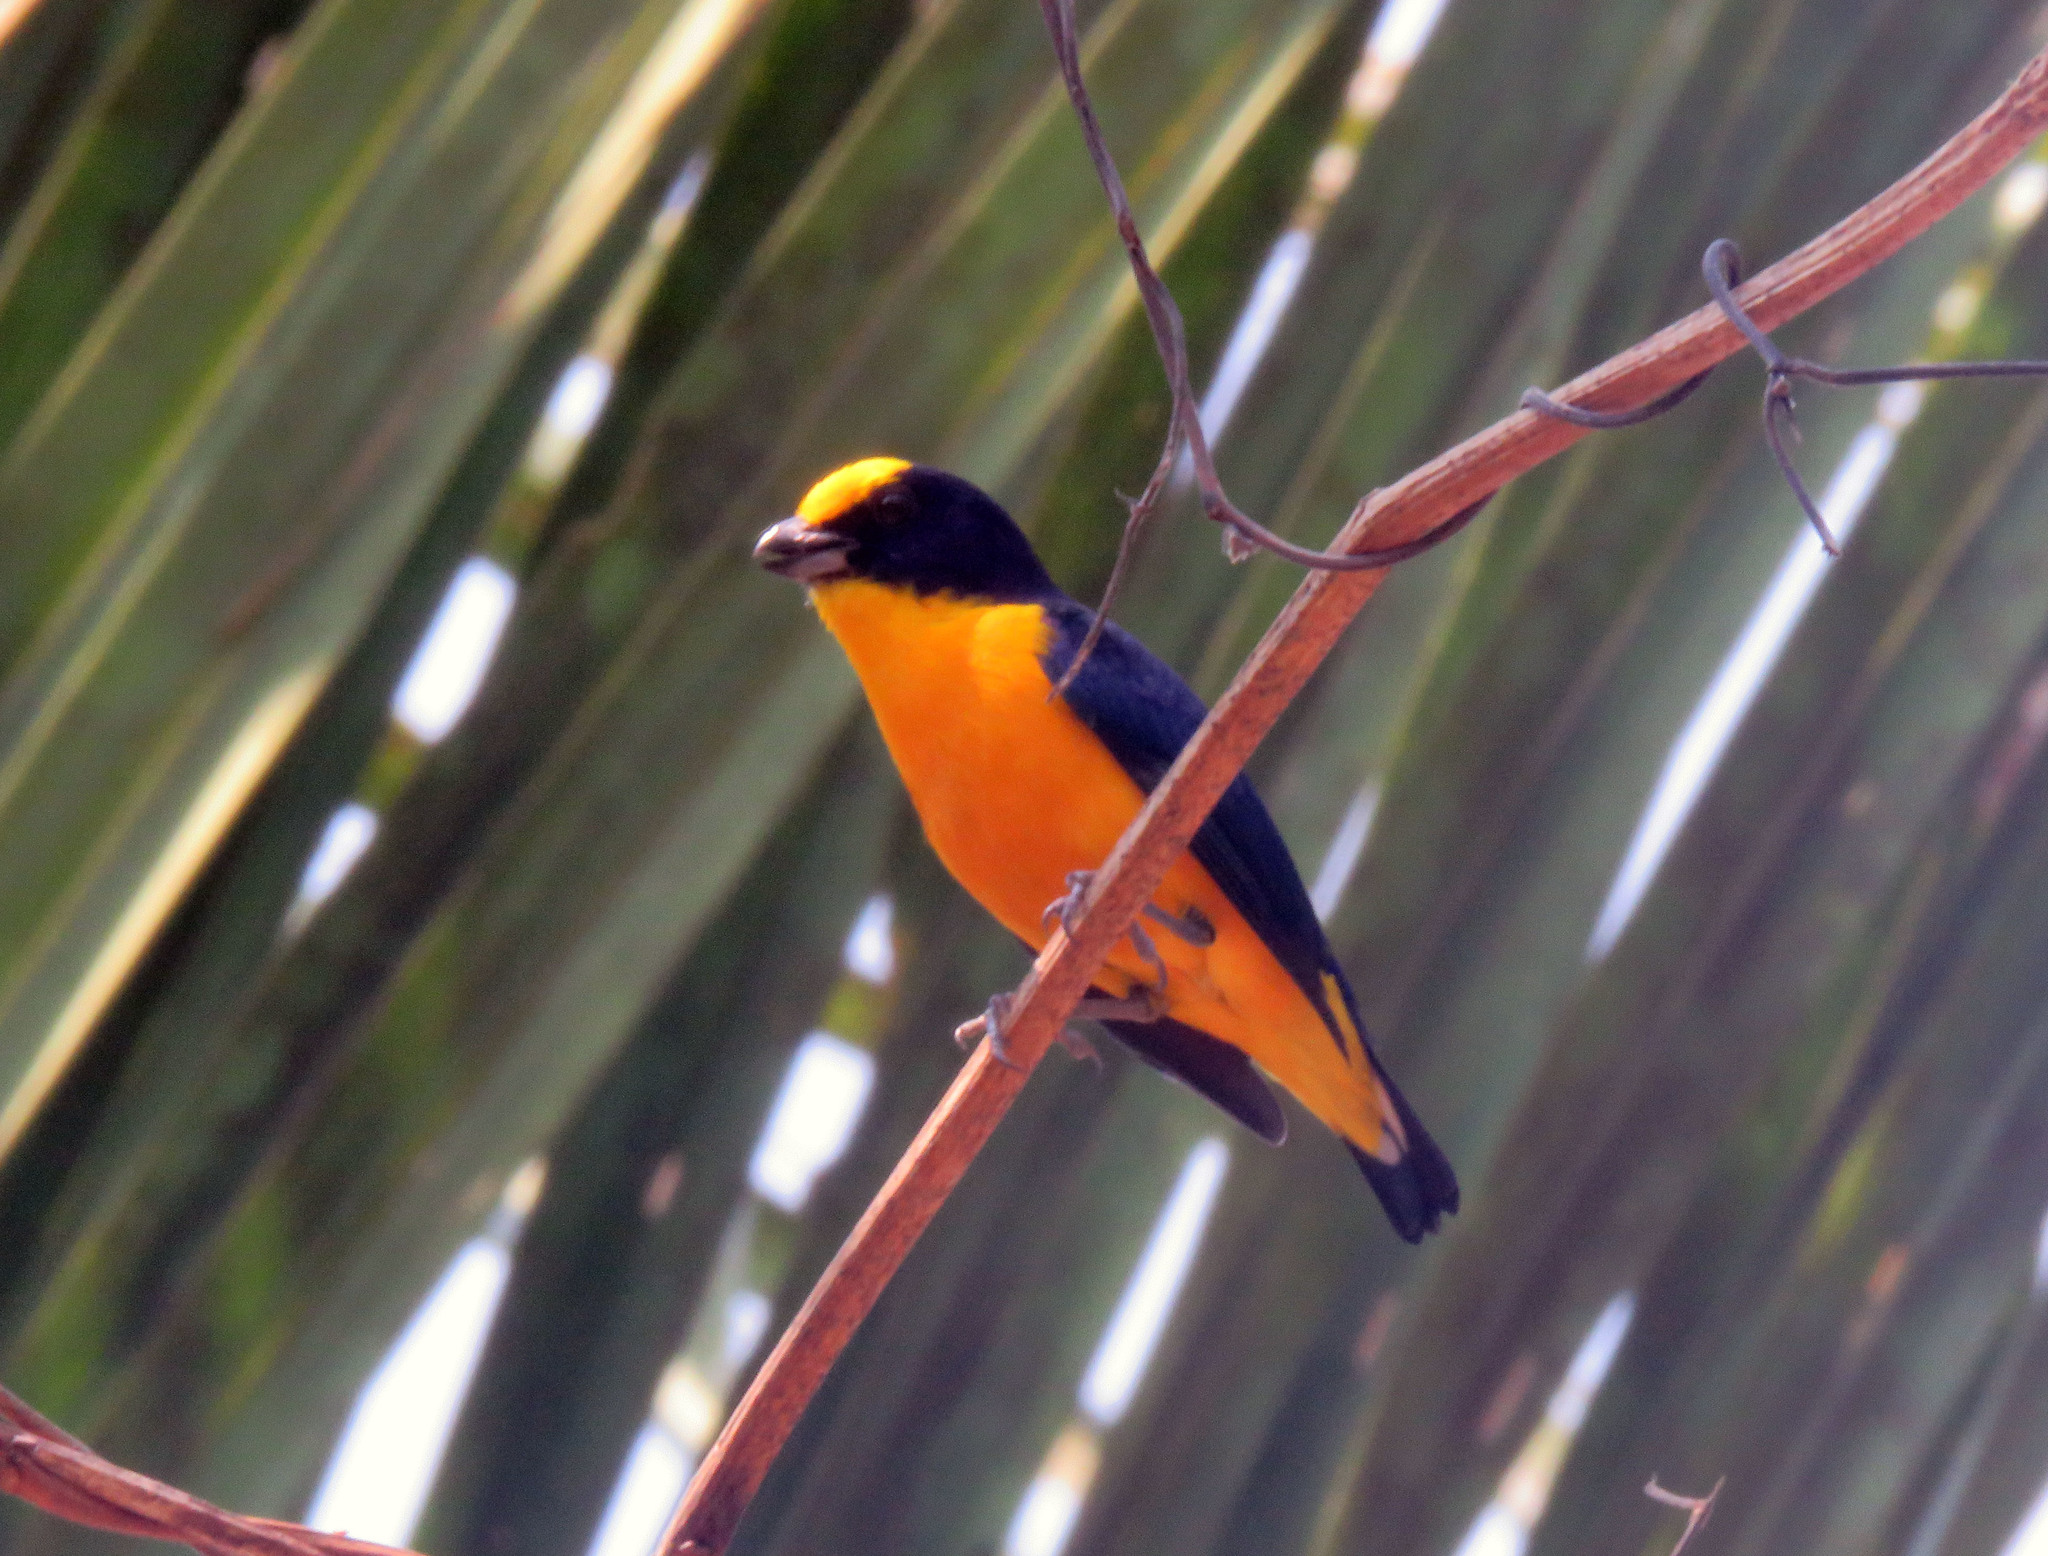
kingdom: Animalia
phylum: Chordata
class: Aves
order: Passeriformes
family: Fringillidae
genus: Euphonia
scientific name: Euphonia laniirostris
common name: Thick-billed euphonia
